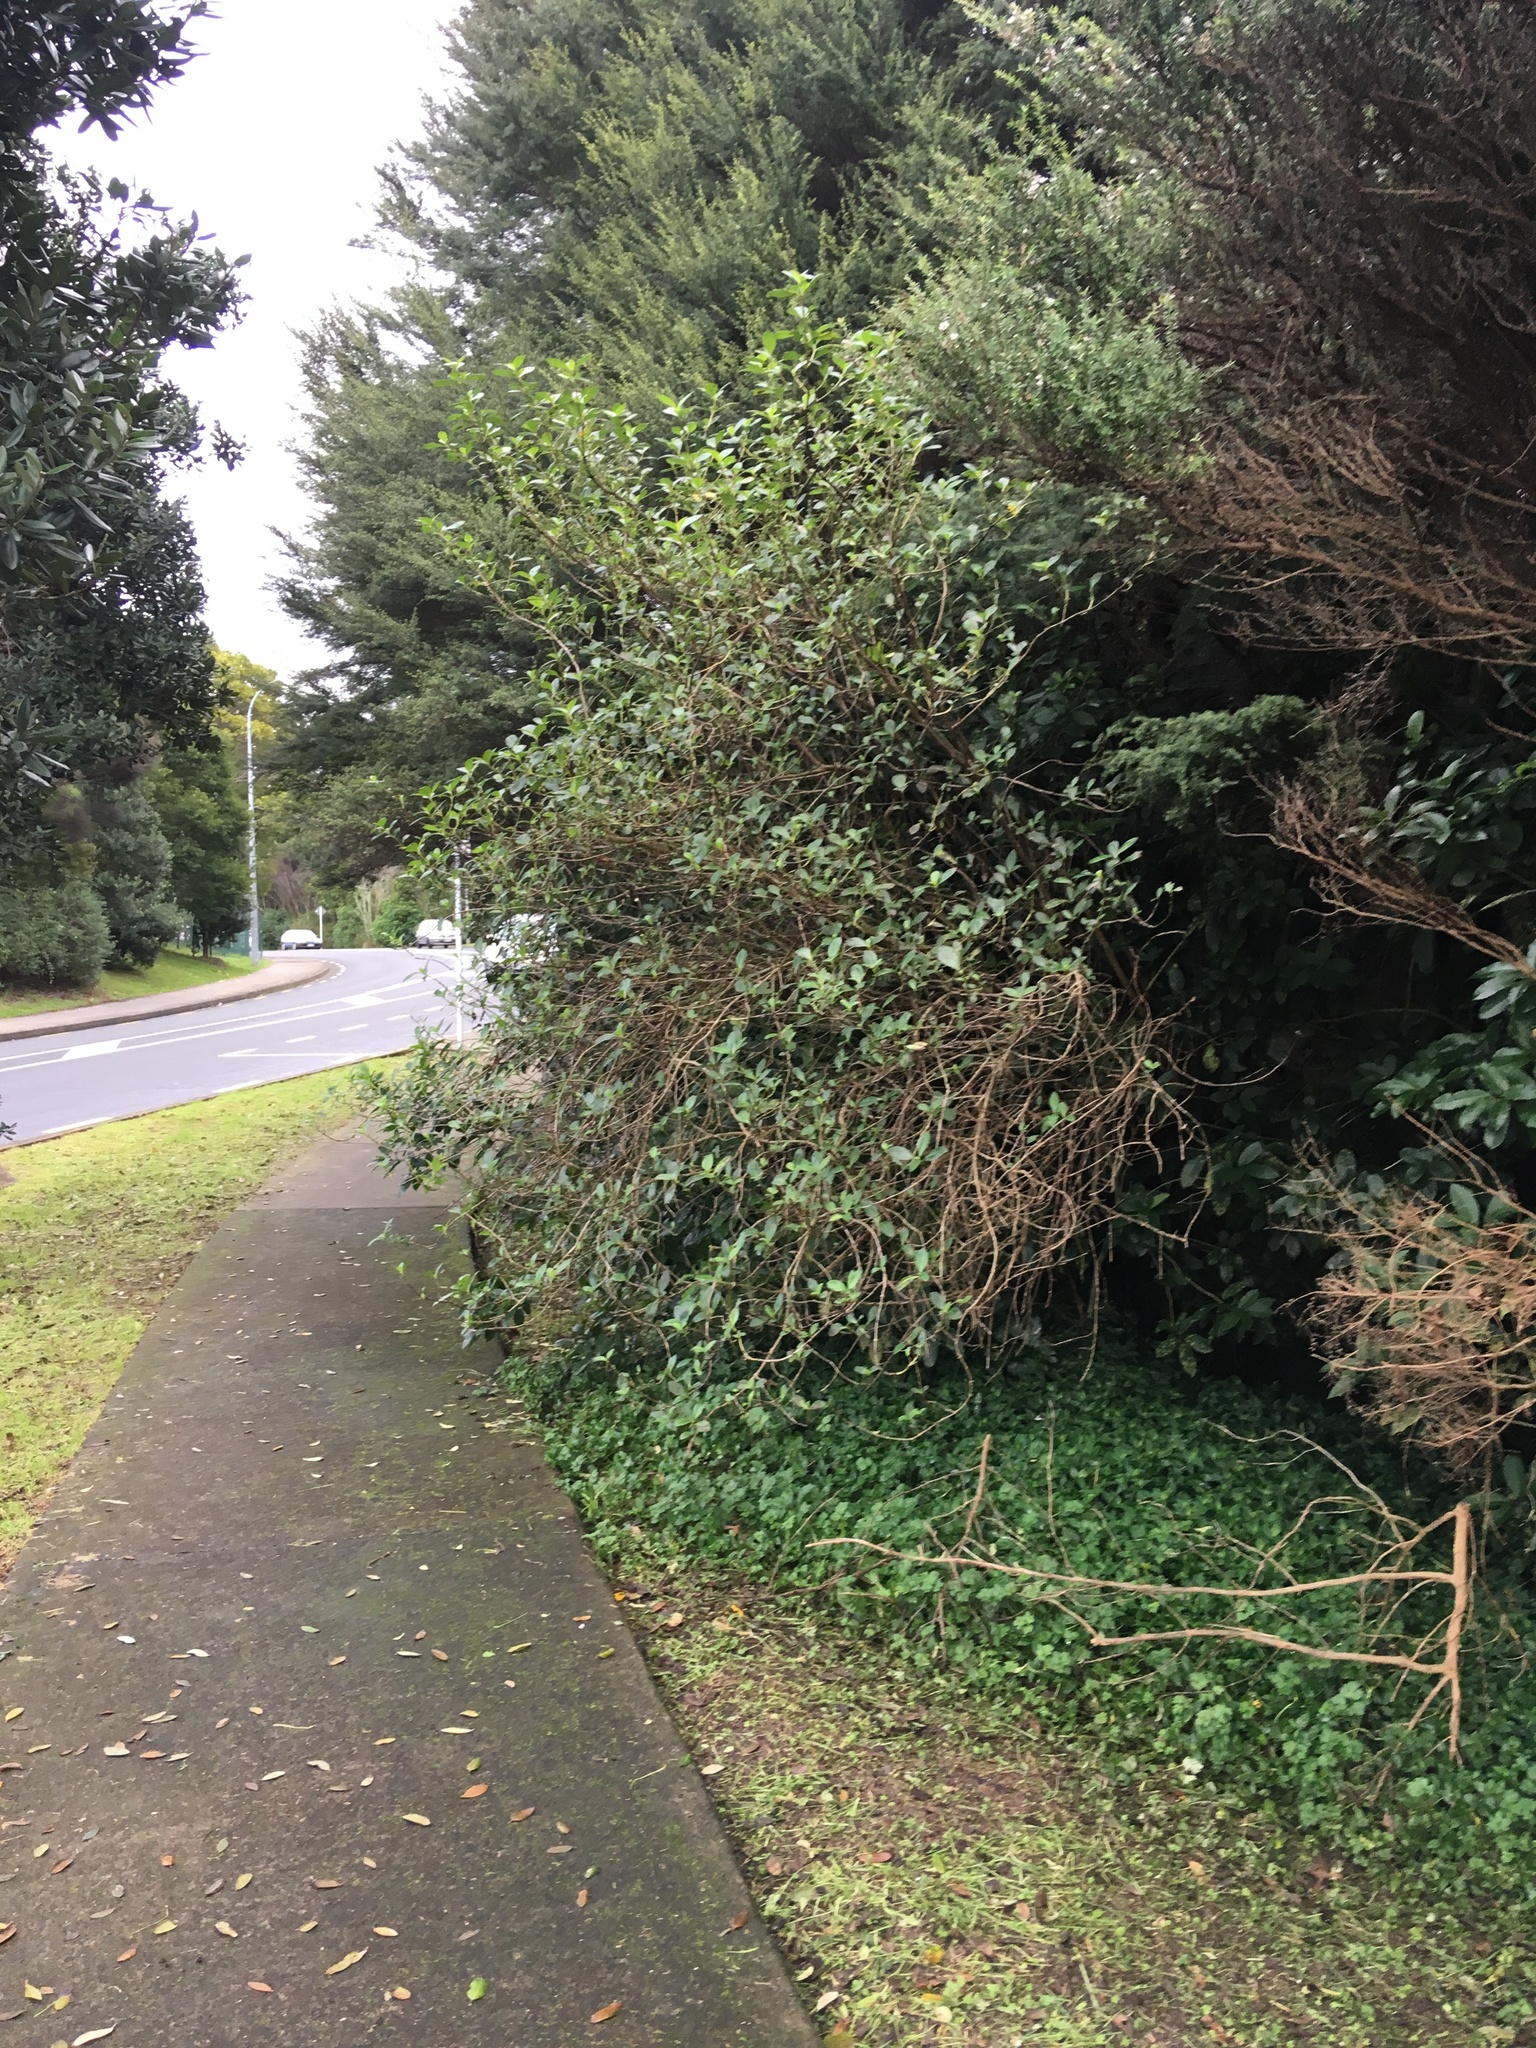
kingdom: Plantae
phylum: Tracheophyta
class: Magnoliopsida
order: Gentianales
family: Rubiaceae
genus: Coprosma
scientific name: Coprosma robusta
